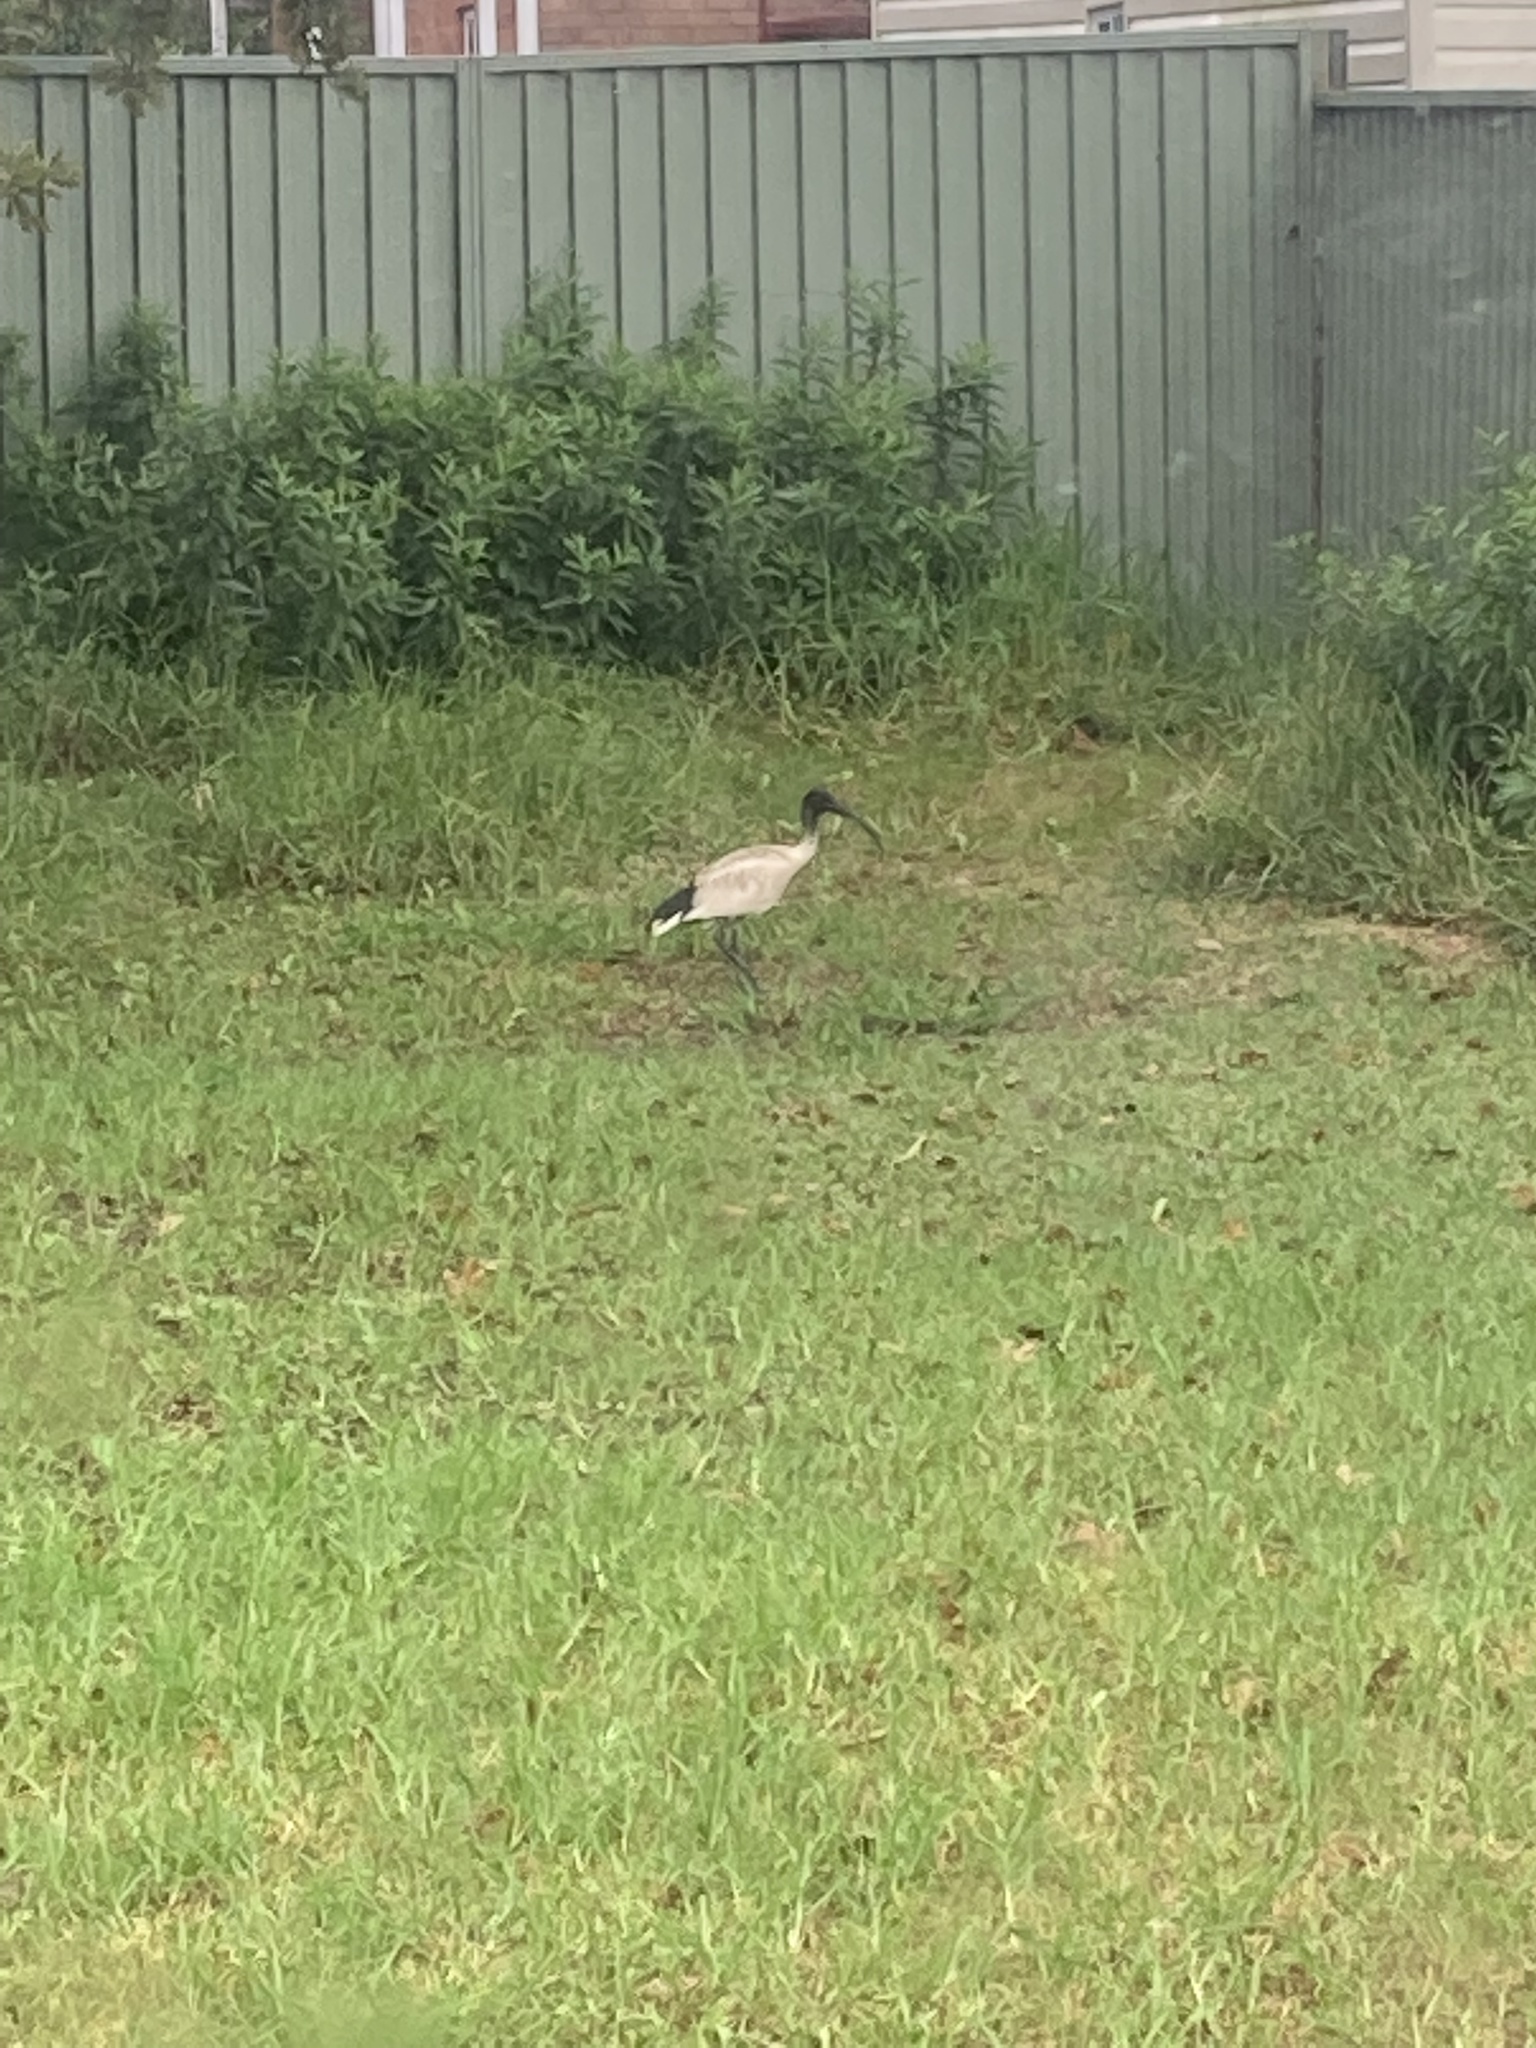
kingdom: Animalia
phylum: Chordata
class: Aves
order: Pelecaniformes
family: Threskiornithidae
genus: Threskiornis
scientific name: Threskiornis molucca
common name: Australian white ibis
